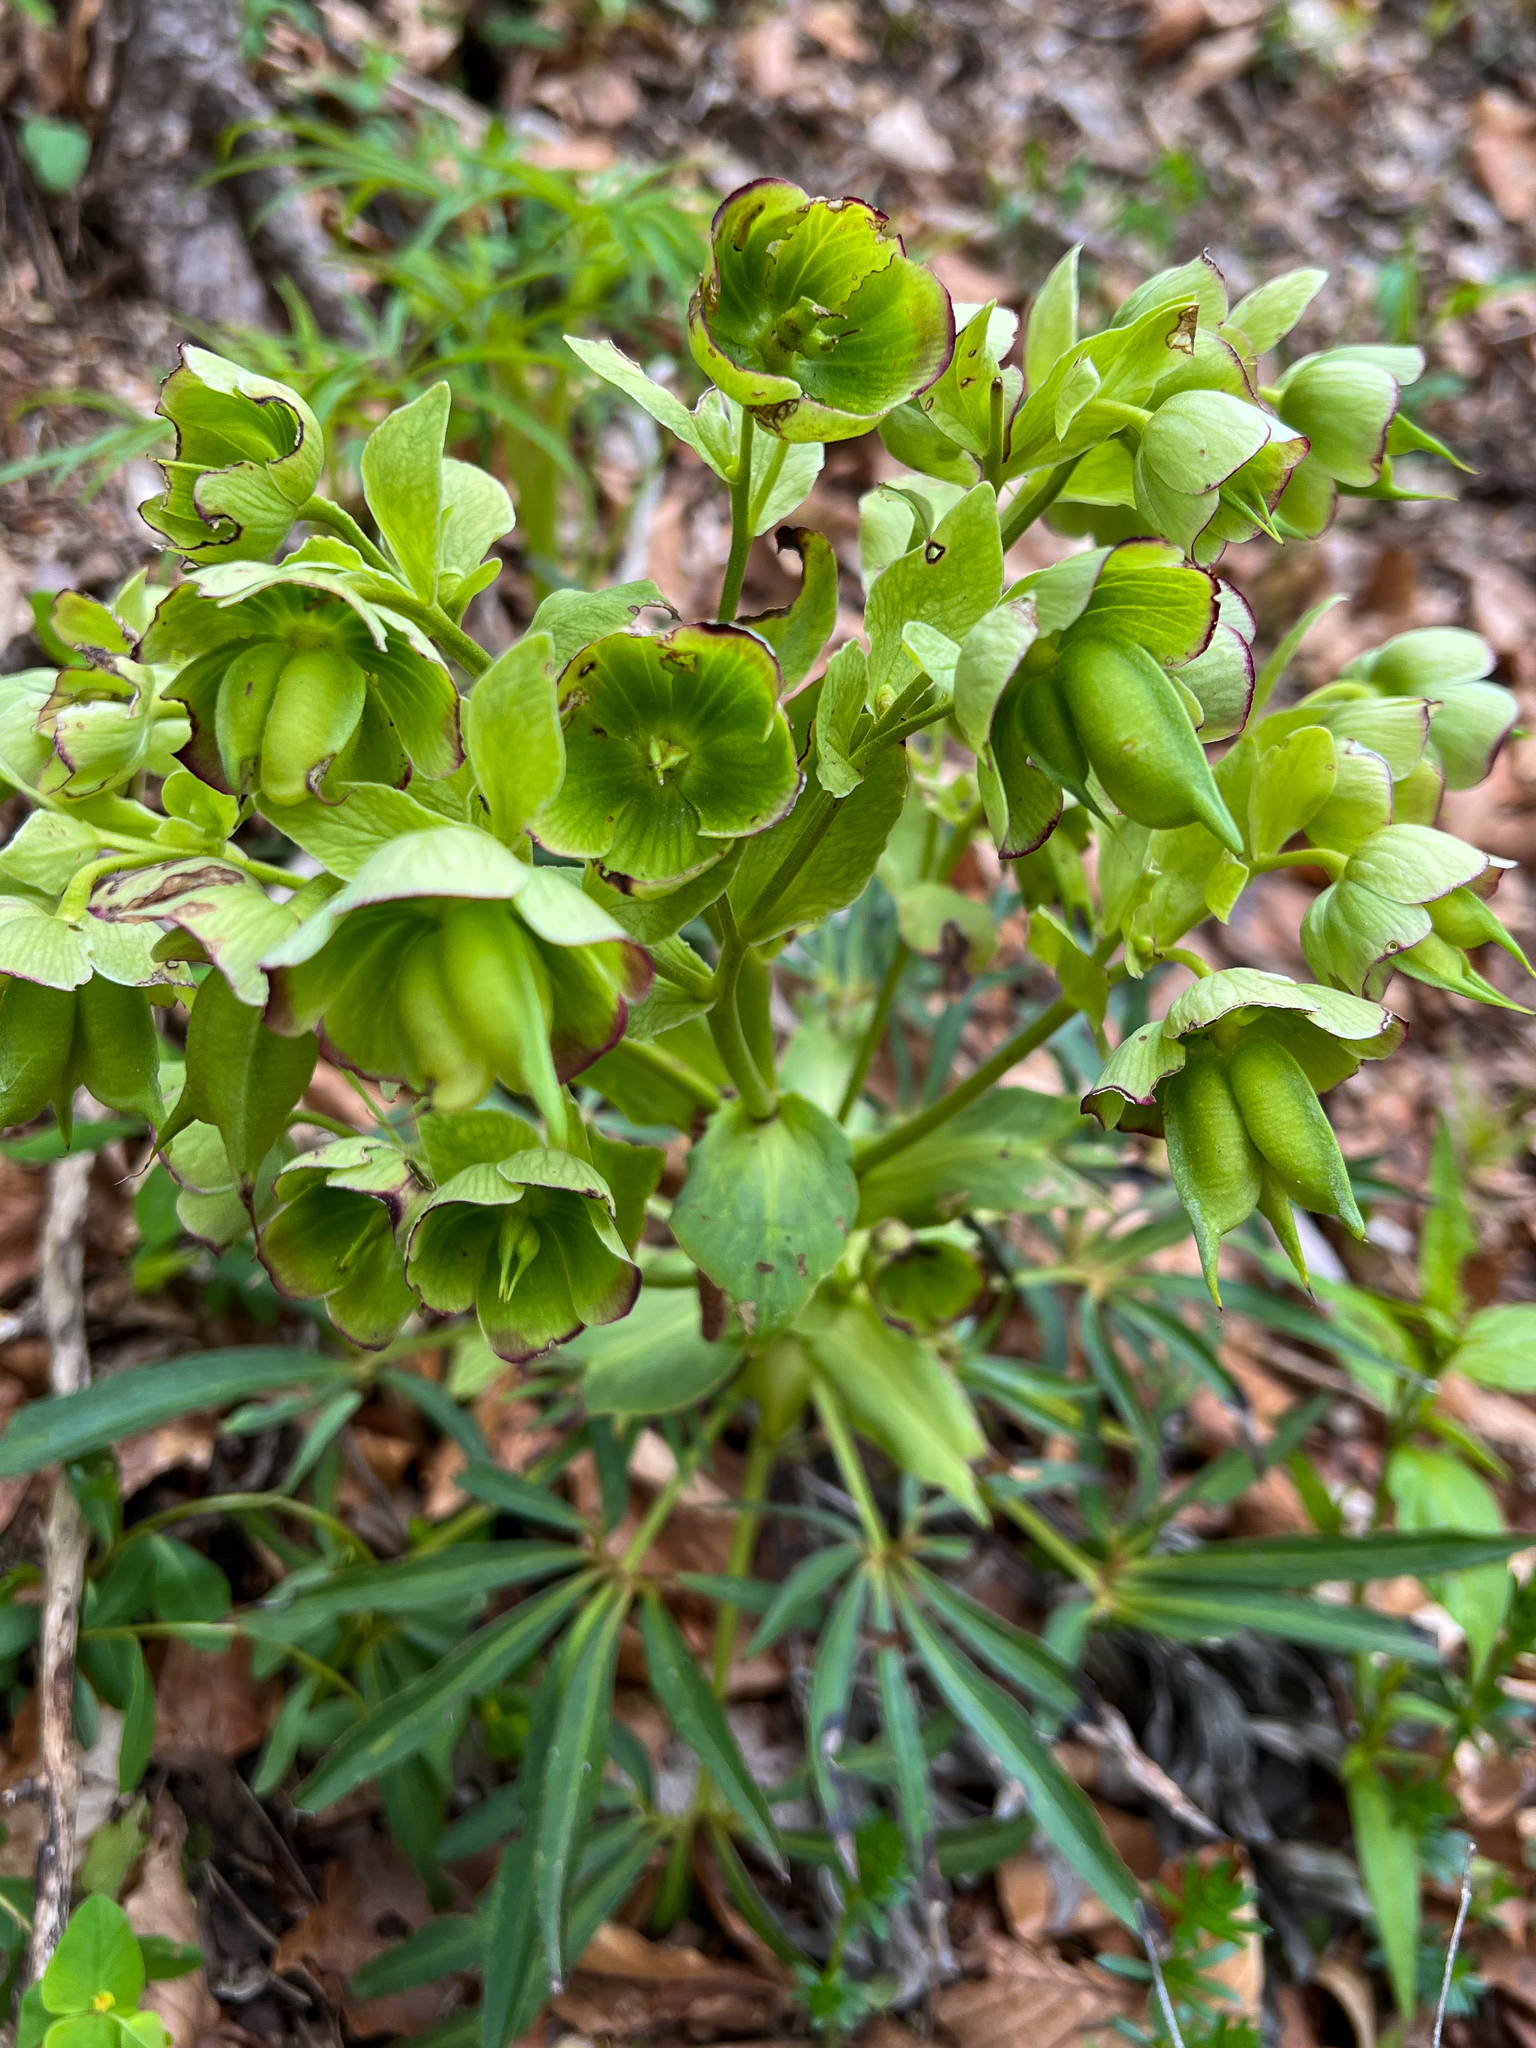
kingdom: Plantae
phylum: Tracheophyta
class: Magnoliopsida
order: Ranunculales
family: Ranunculaceae
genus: Helleborus
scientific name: Helleborus foetidus
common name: Stinking hellebore
